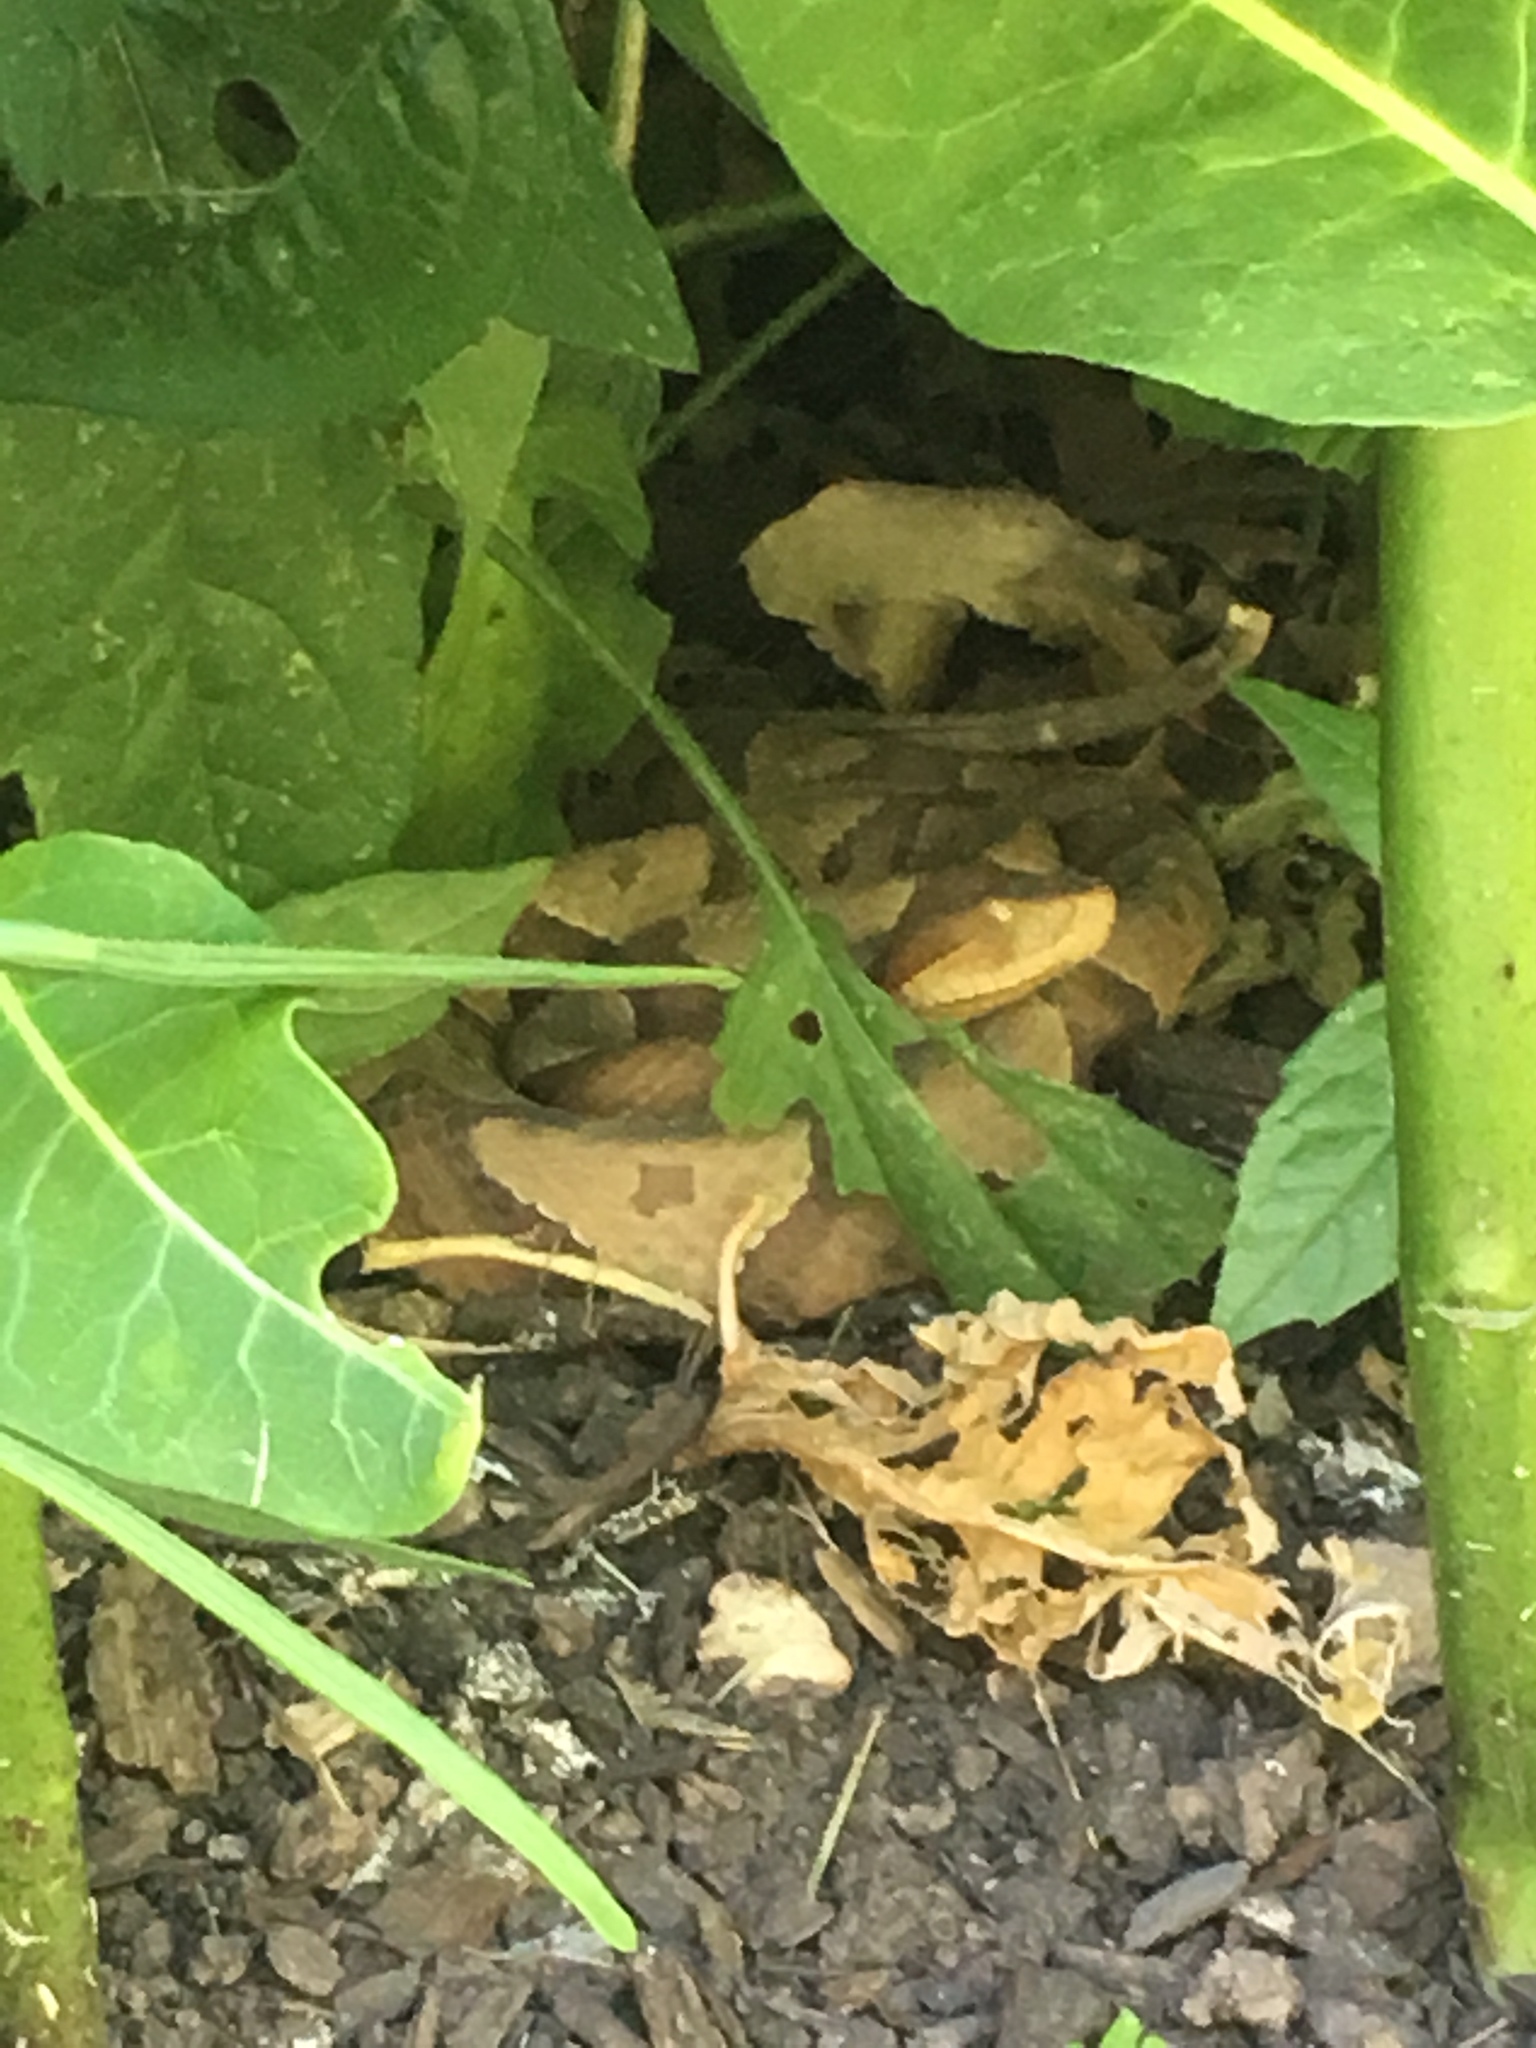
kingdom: Animalia
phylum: Chordata
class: Squamata
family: Viperidae
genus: Agkistrodon
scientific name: Agkistrodon contortrix
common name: Northern copperhead
